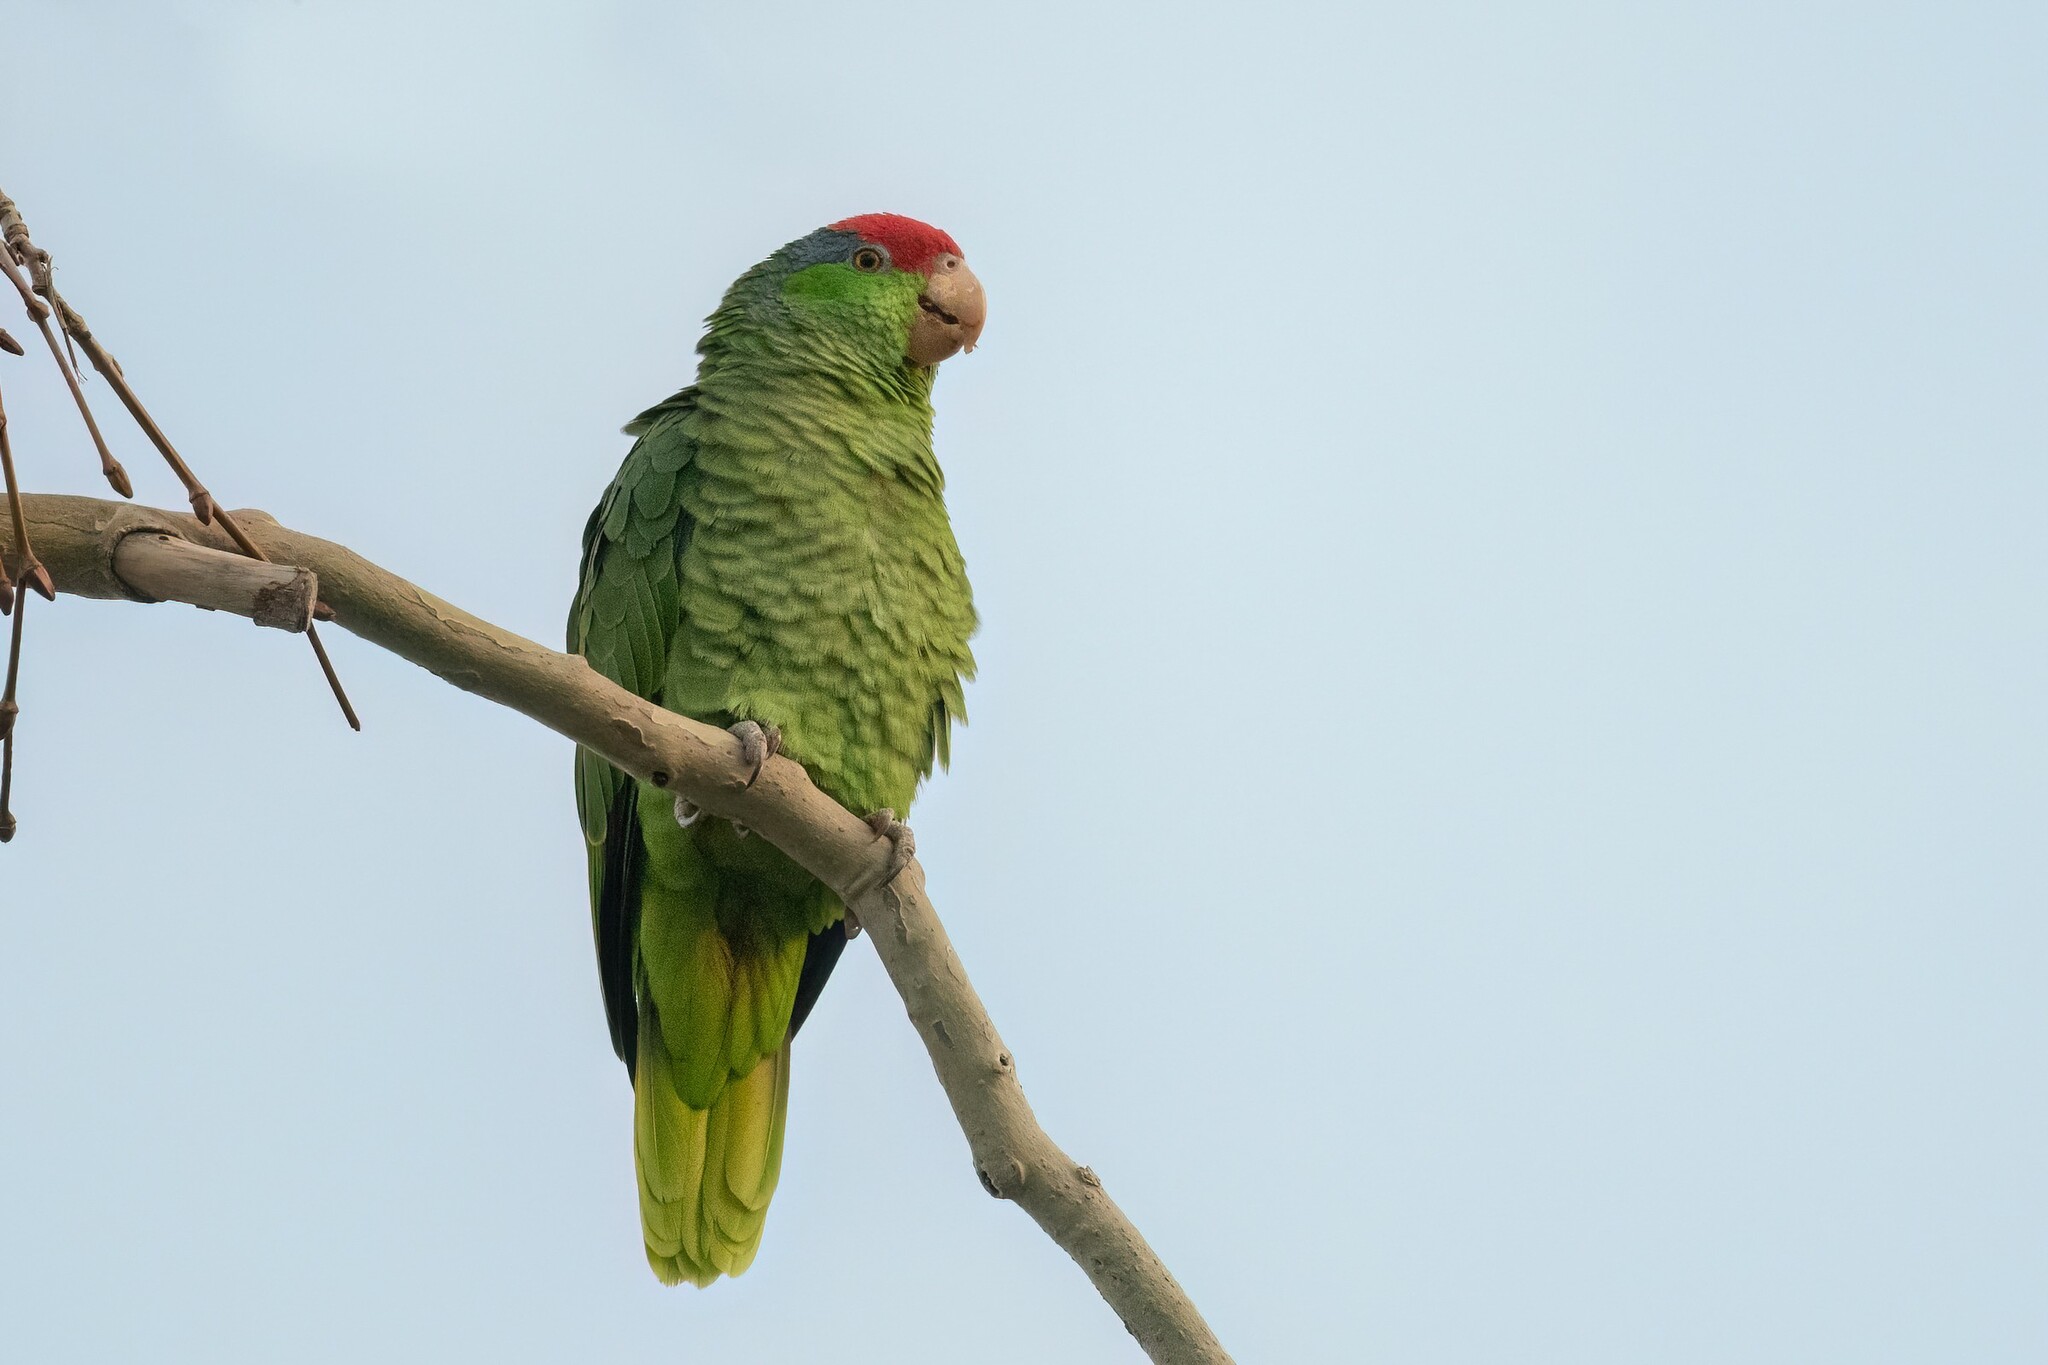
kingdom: Animalia
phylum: Chordata
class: Aves
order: Psittaciformes
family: Psittacidae
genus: Amazona
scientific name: Amazona viridigenalis
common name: Red-crowned amazon
